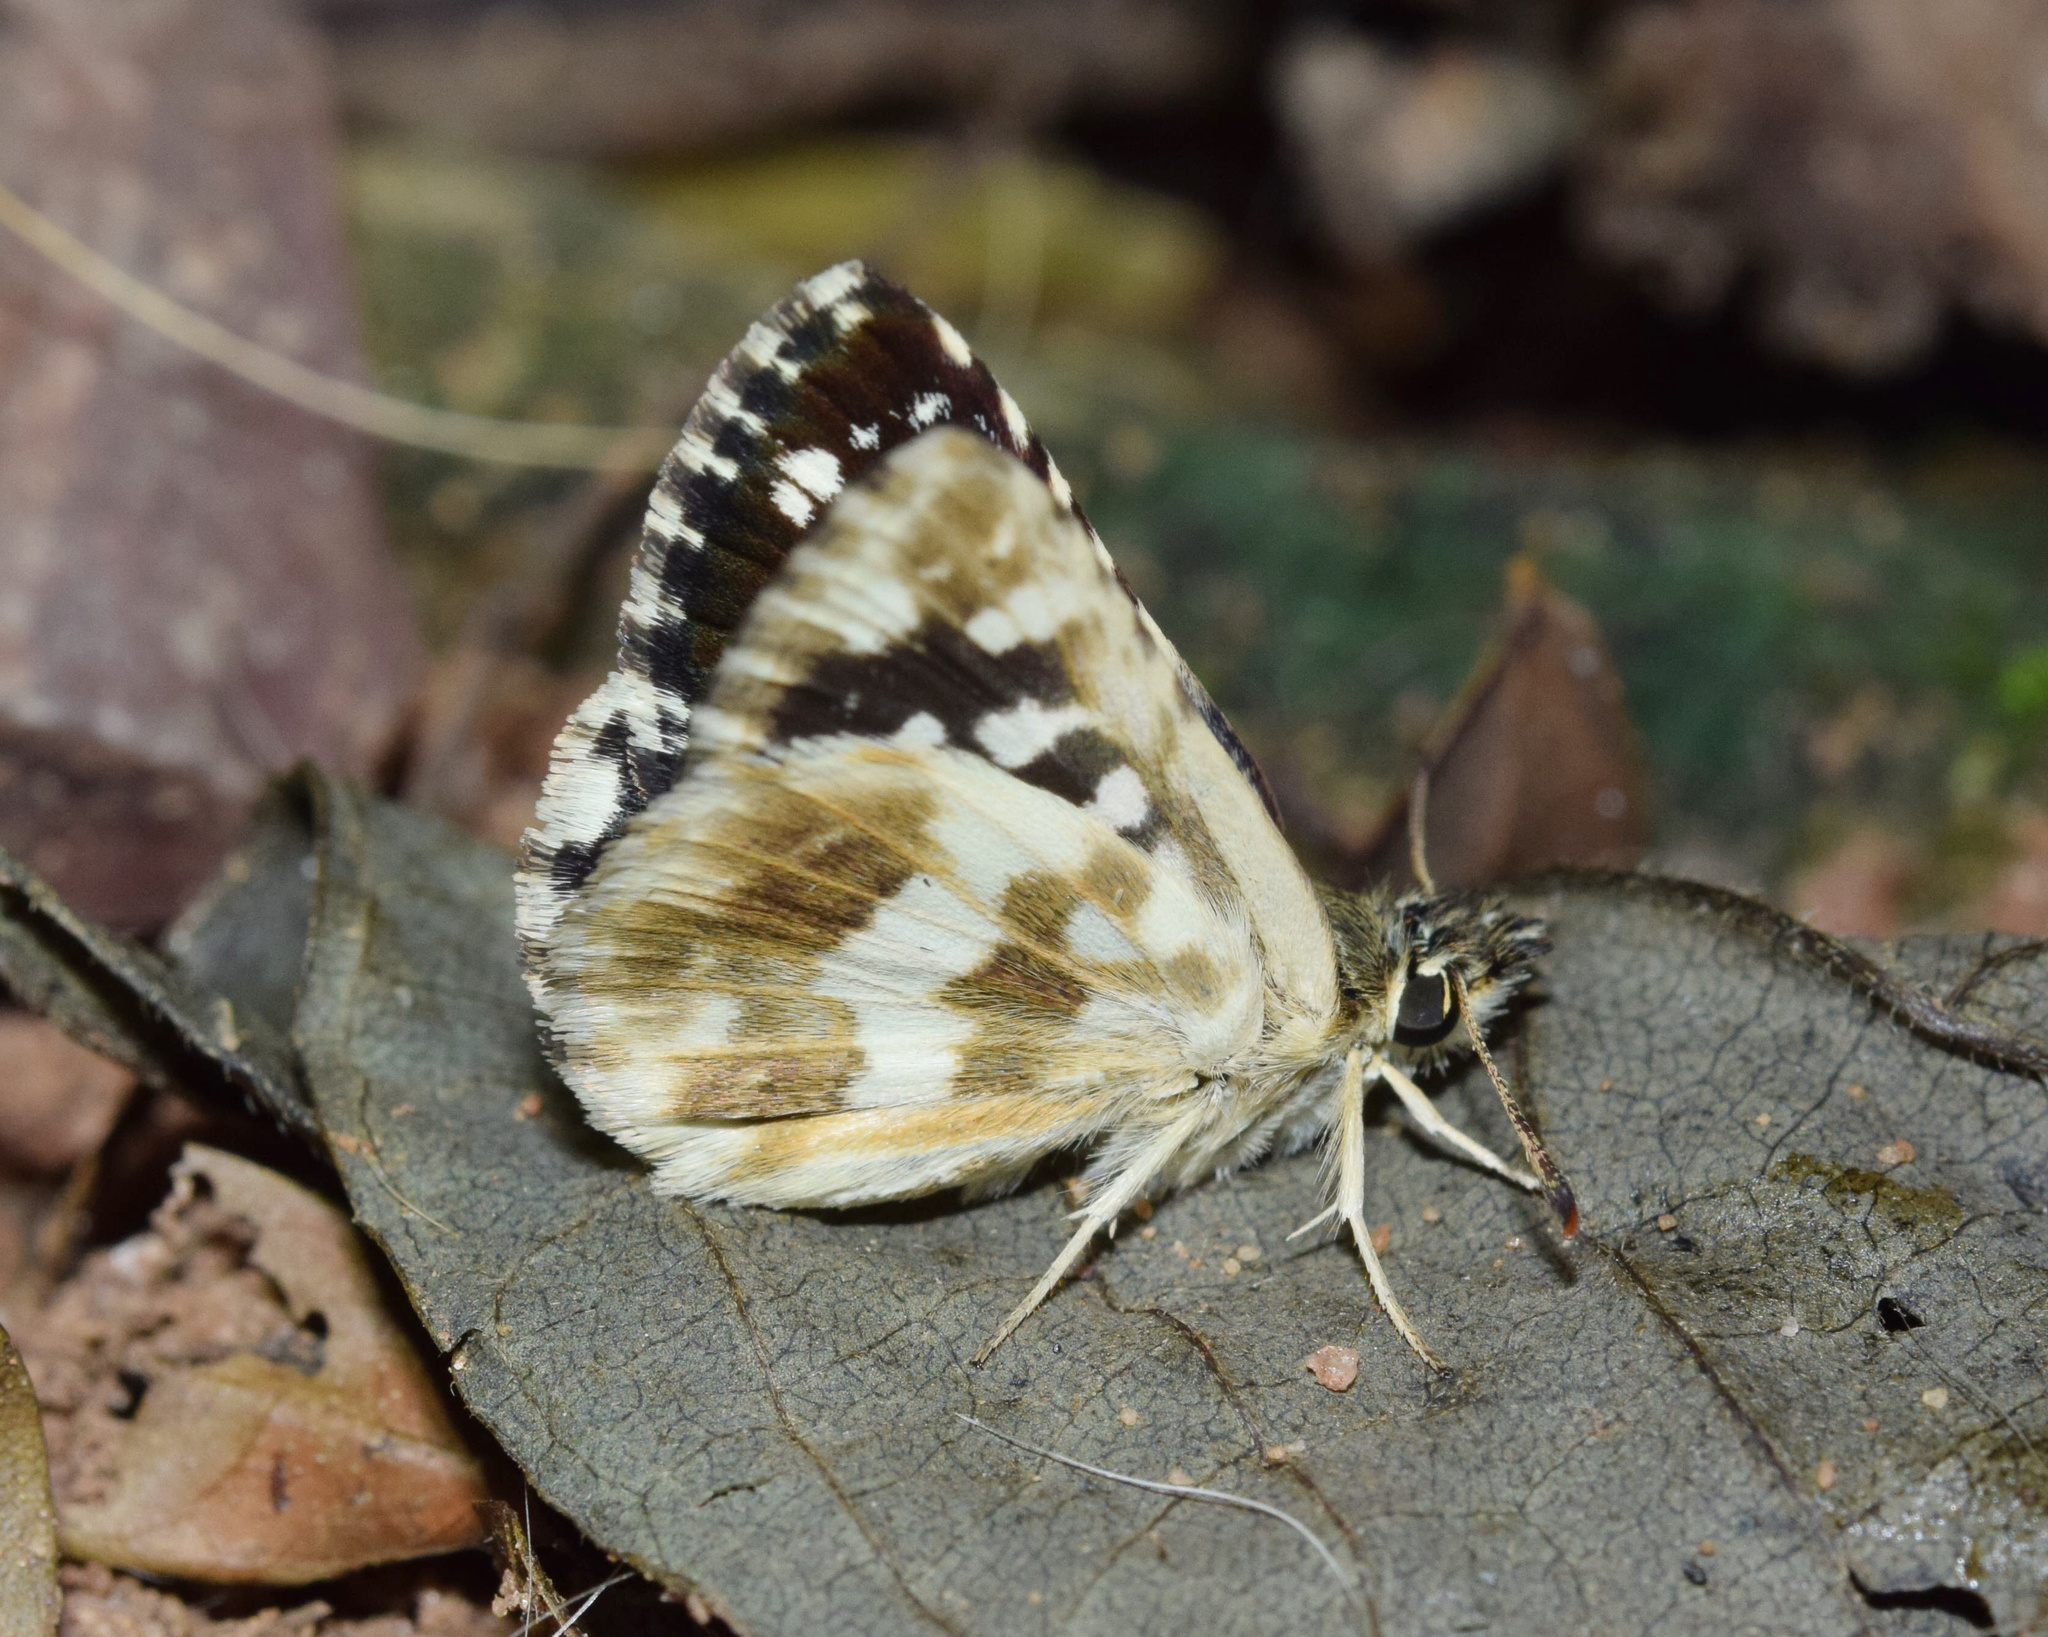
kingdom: Animalia
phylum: Arthropoda
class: Insecta
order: Lepidoptera
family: Hesperiidae
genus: Spialia
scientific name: Spialia spio
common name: Mountain sandman
